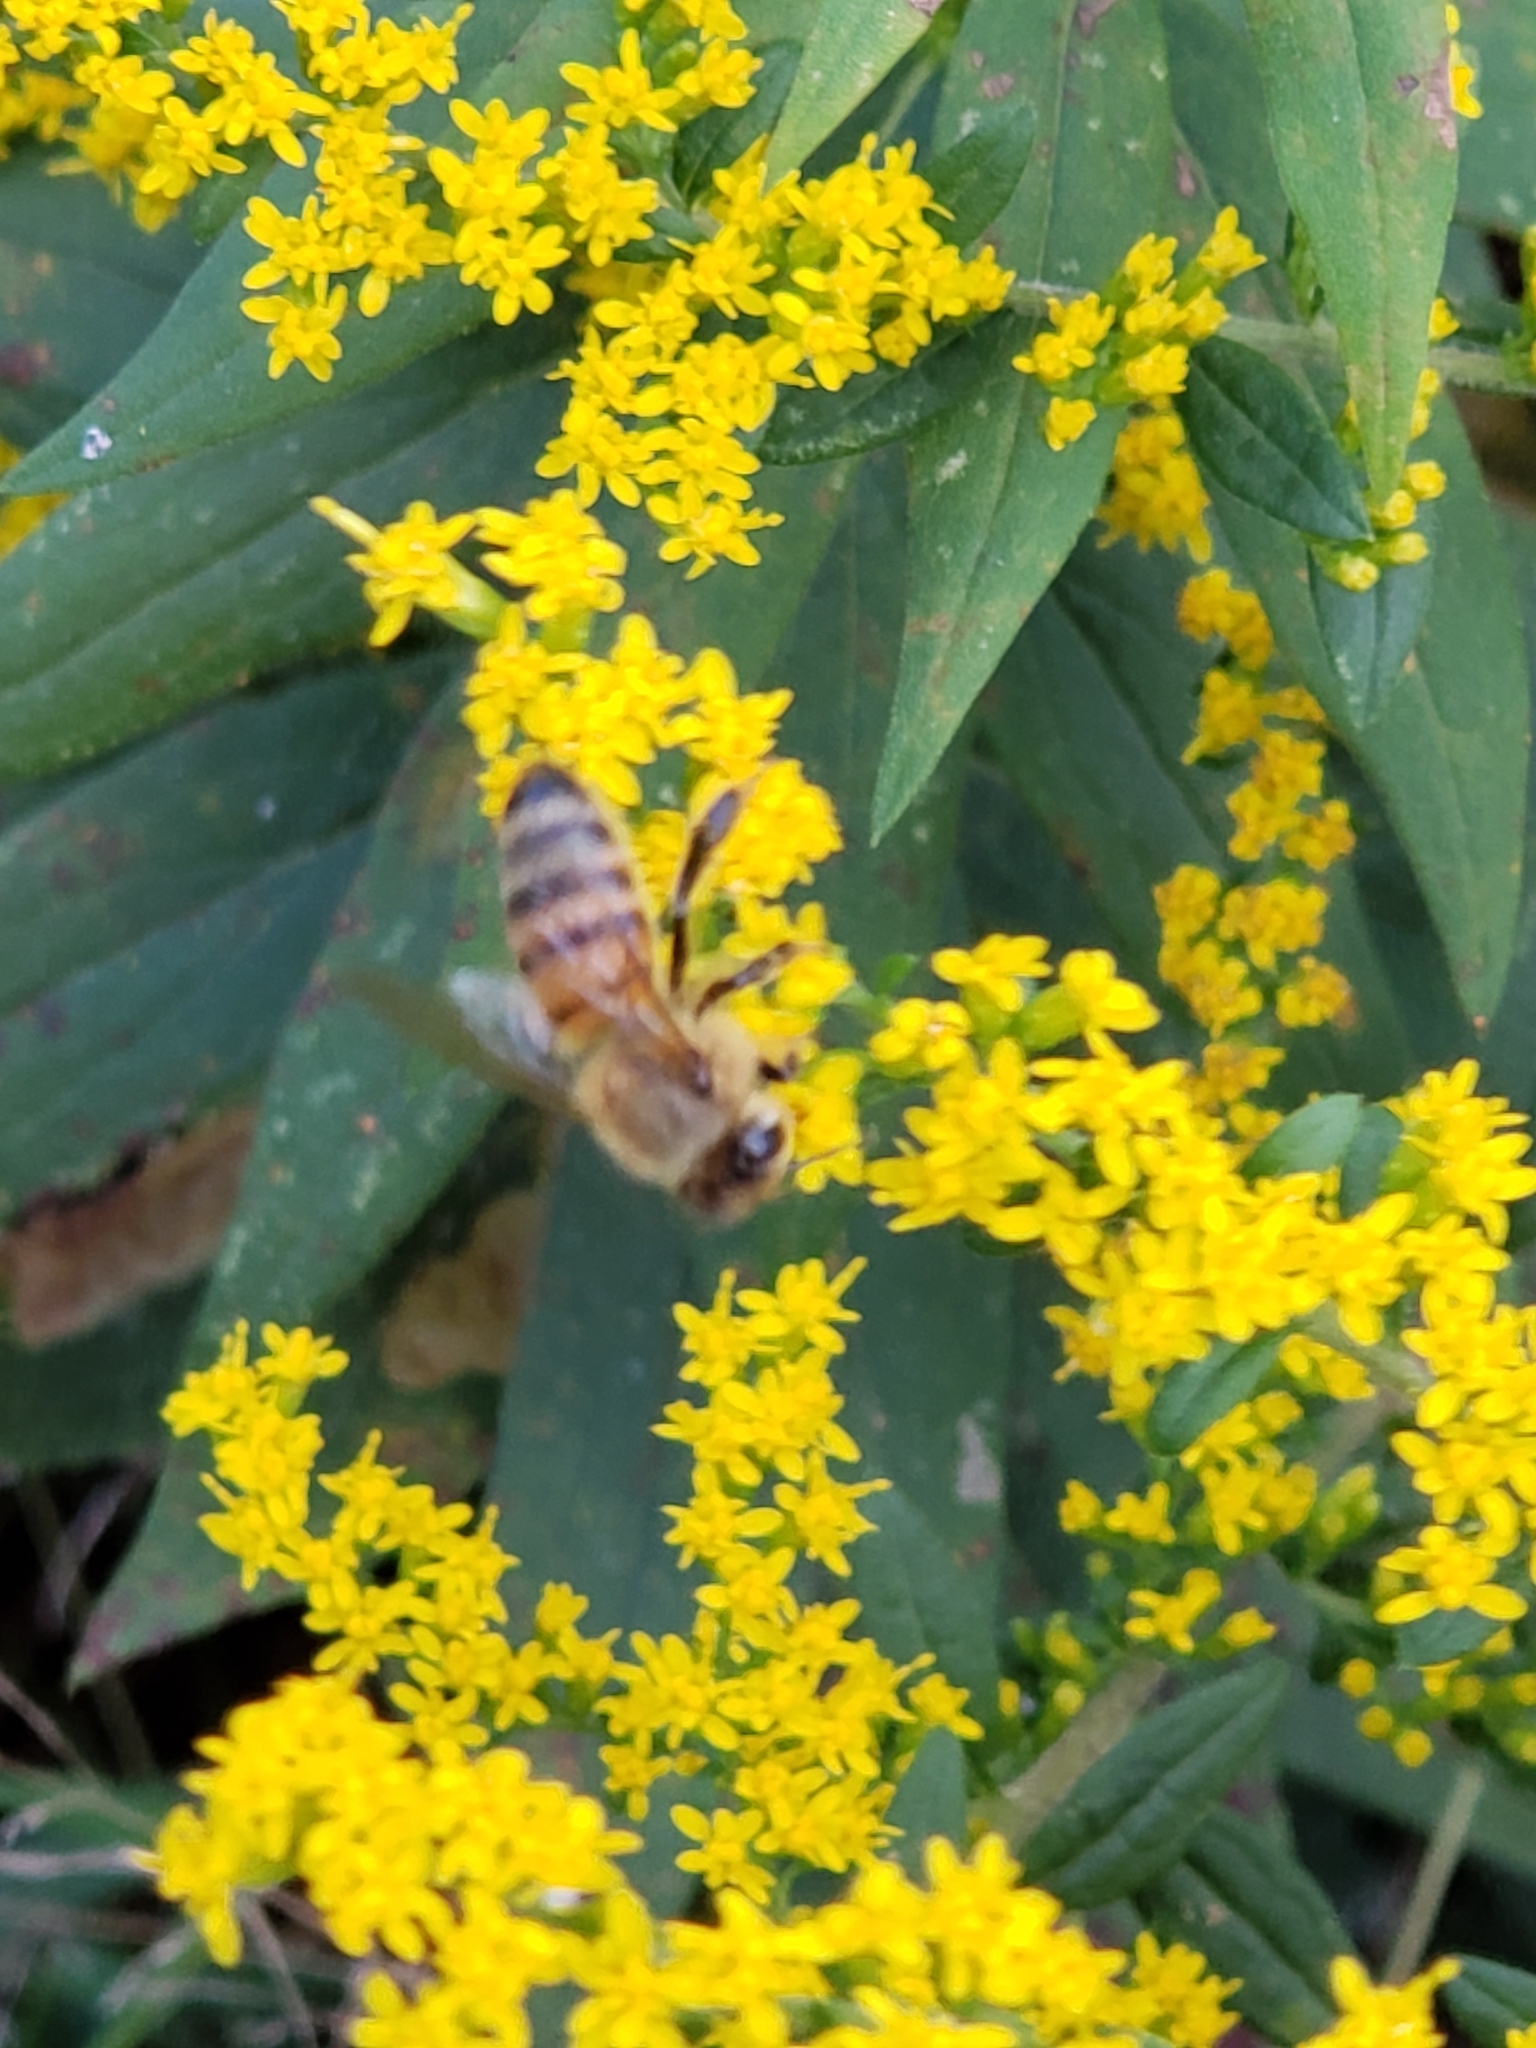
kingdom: Animalia
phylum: Arthropoda
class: Insecta
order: Hymenoptera
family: Apidae
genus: Apis
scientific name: Apis mellifera
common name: Honey bee
